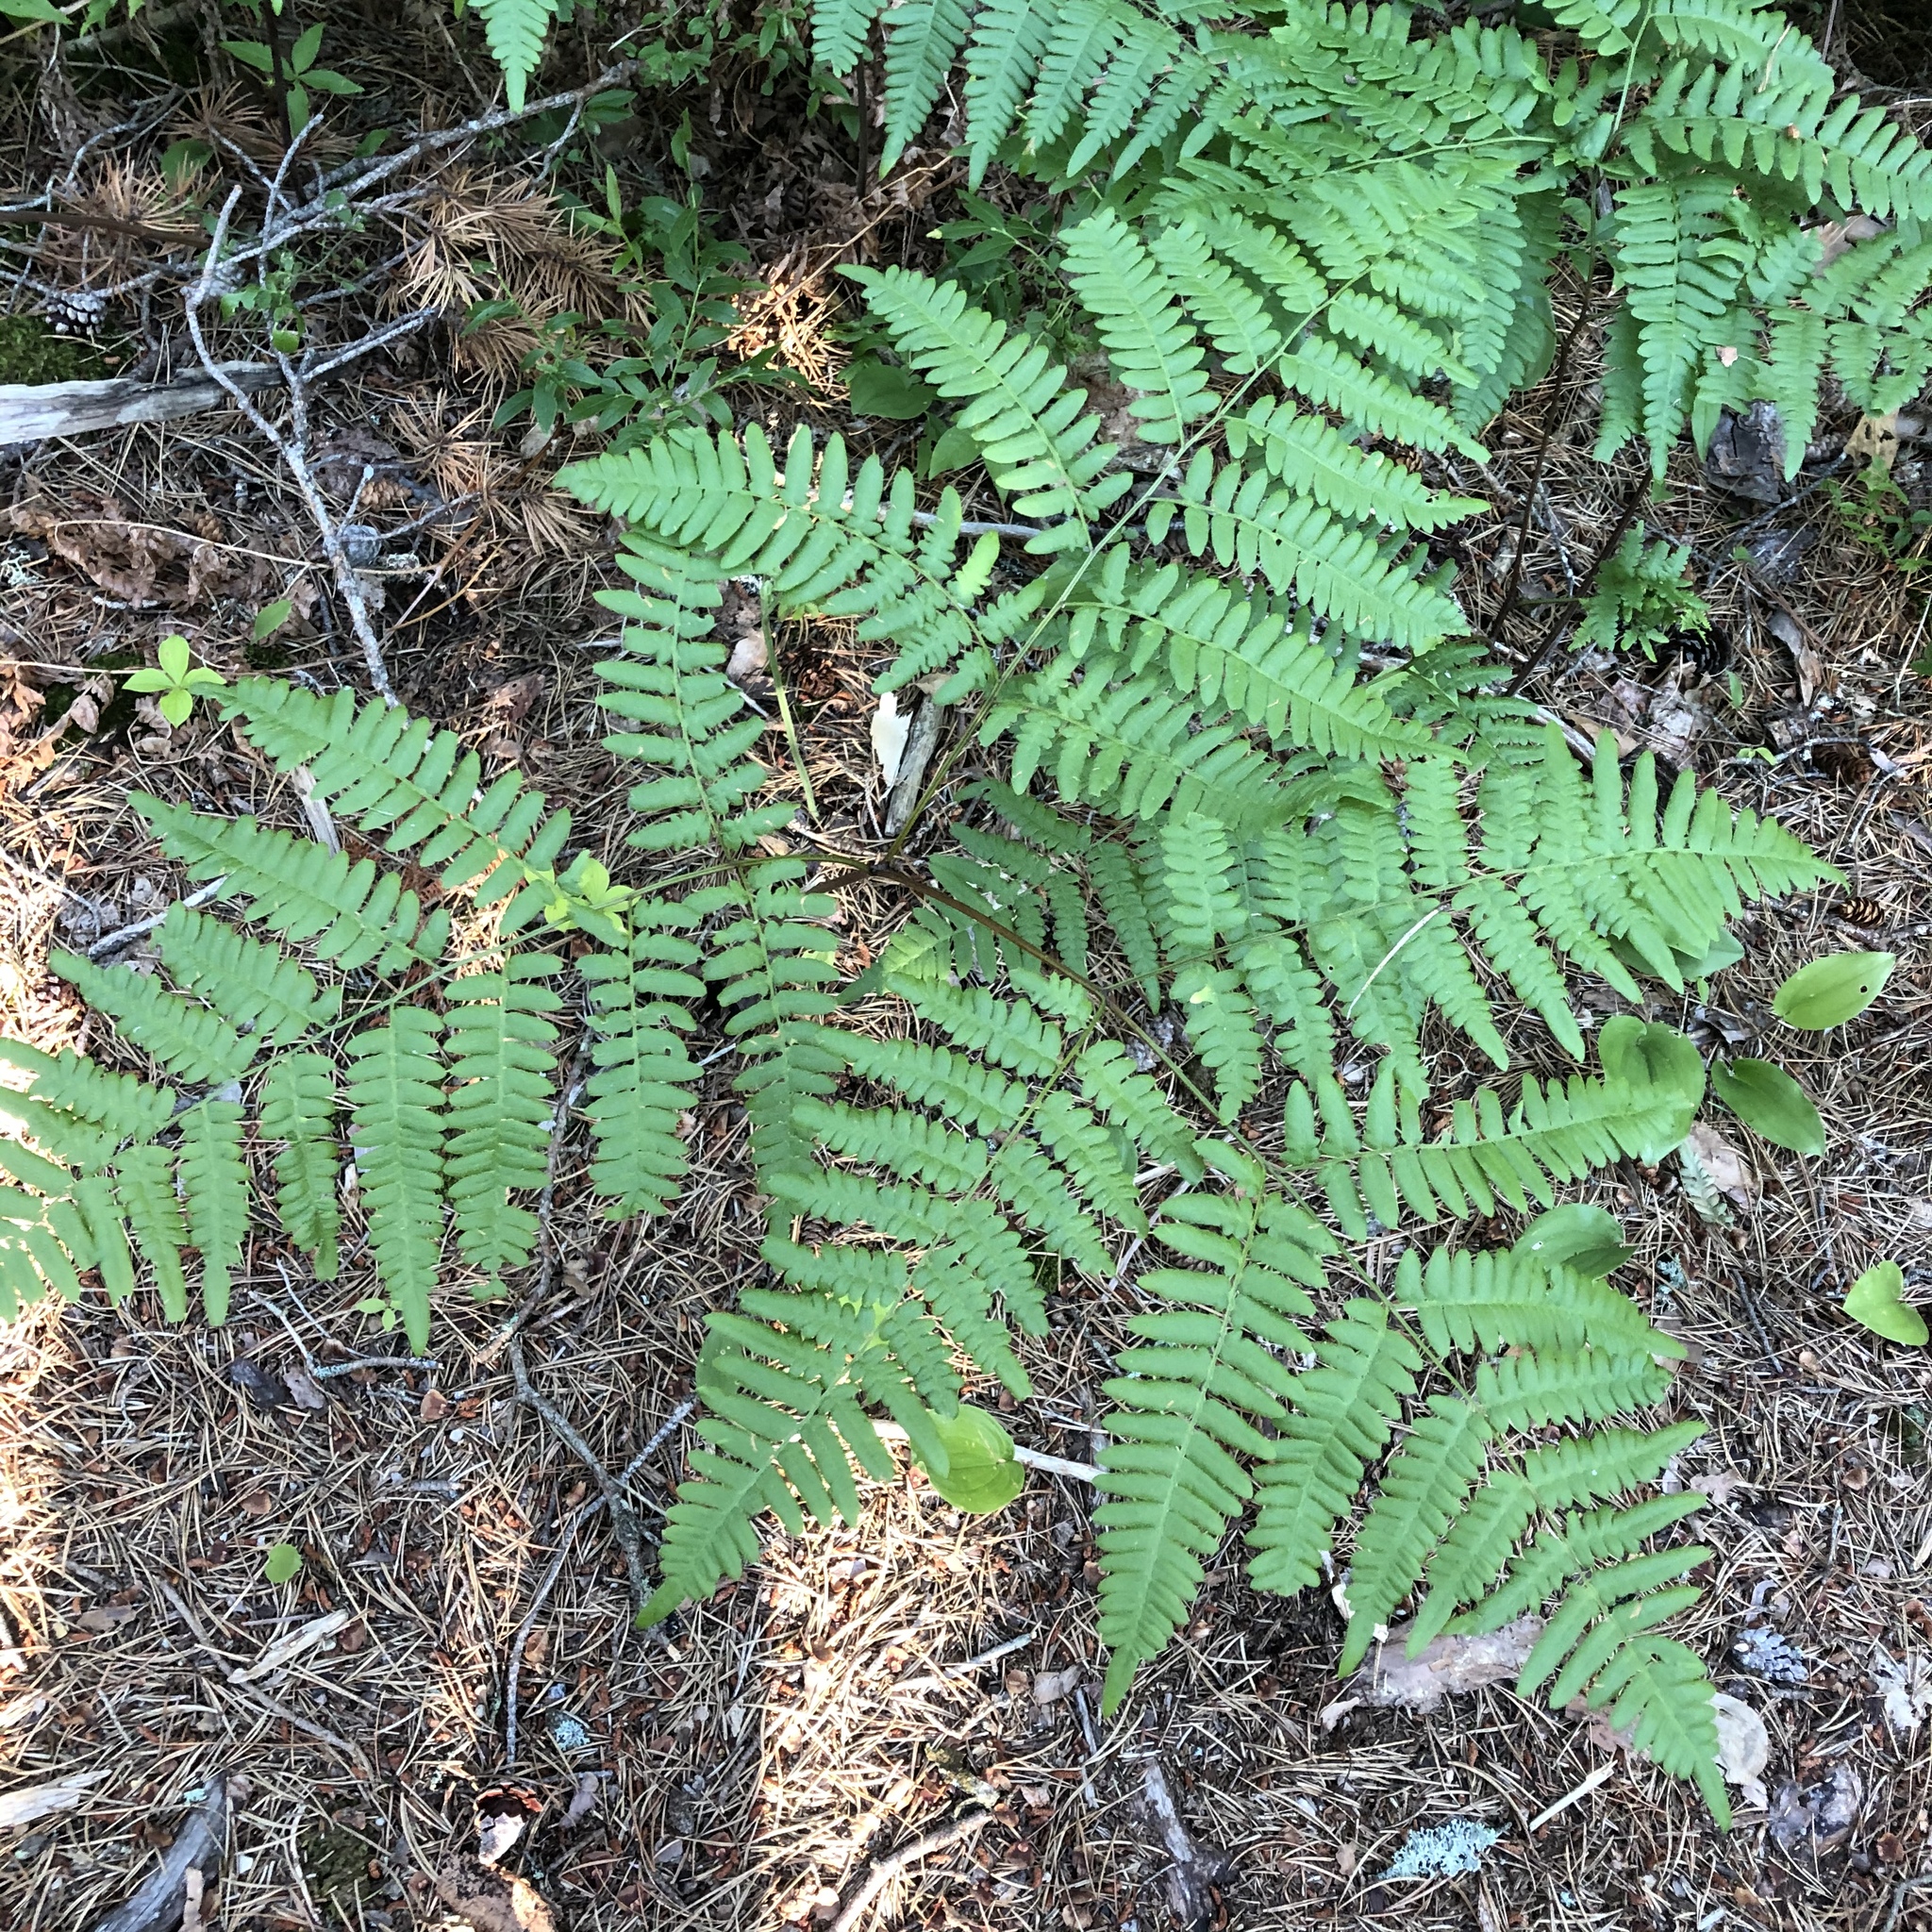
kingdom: Plantae
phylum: Tracheophyta
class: Polypodiopsida
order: Polypodiales
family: Dennstaedtiaceae
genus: Pteridium
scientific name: Pteridium aquilinum
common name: Bracken
